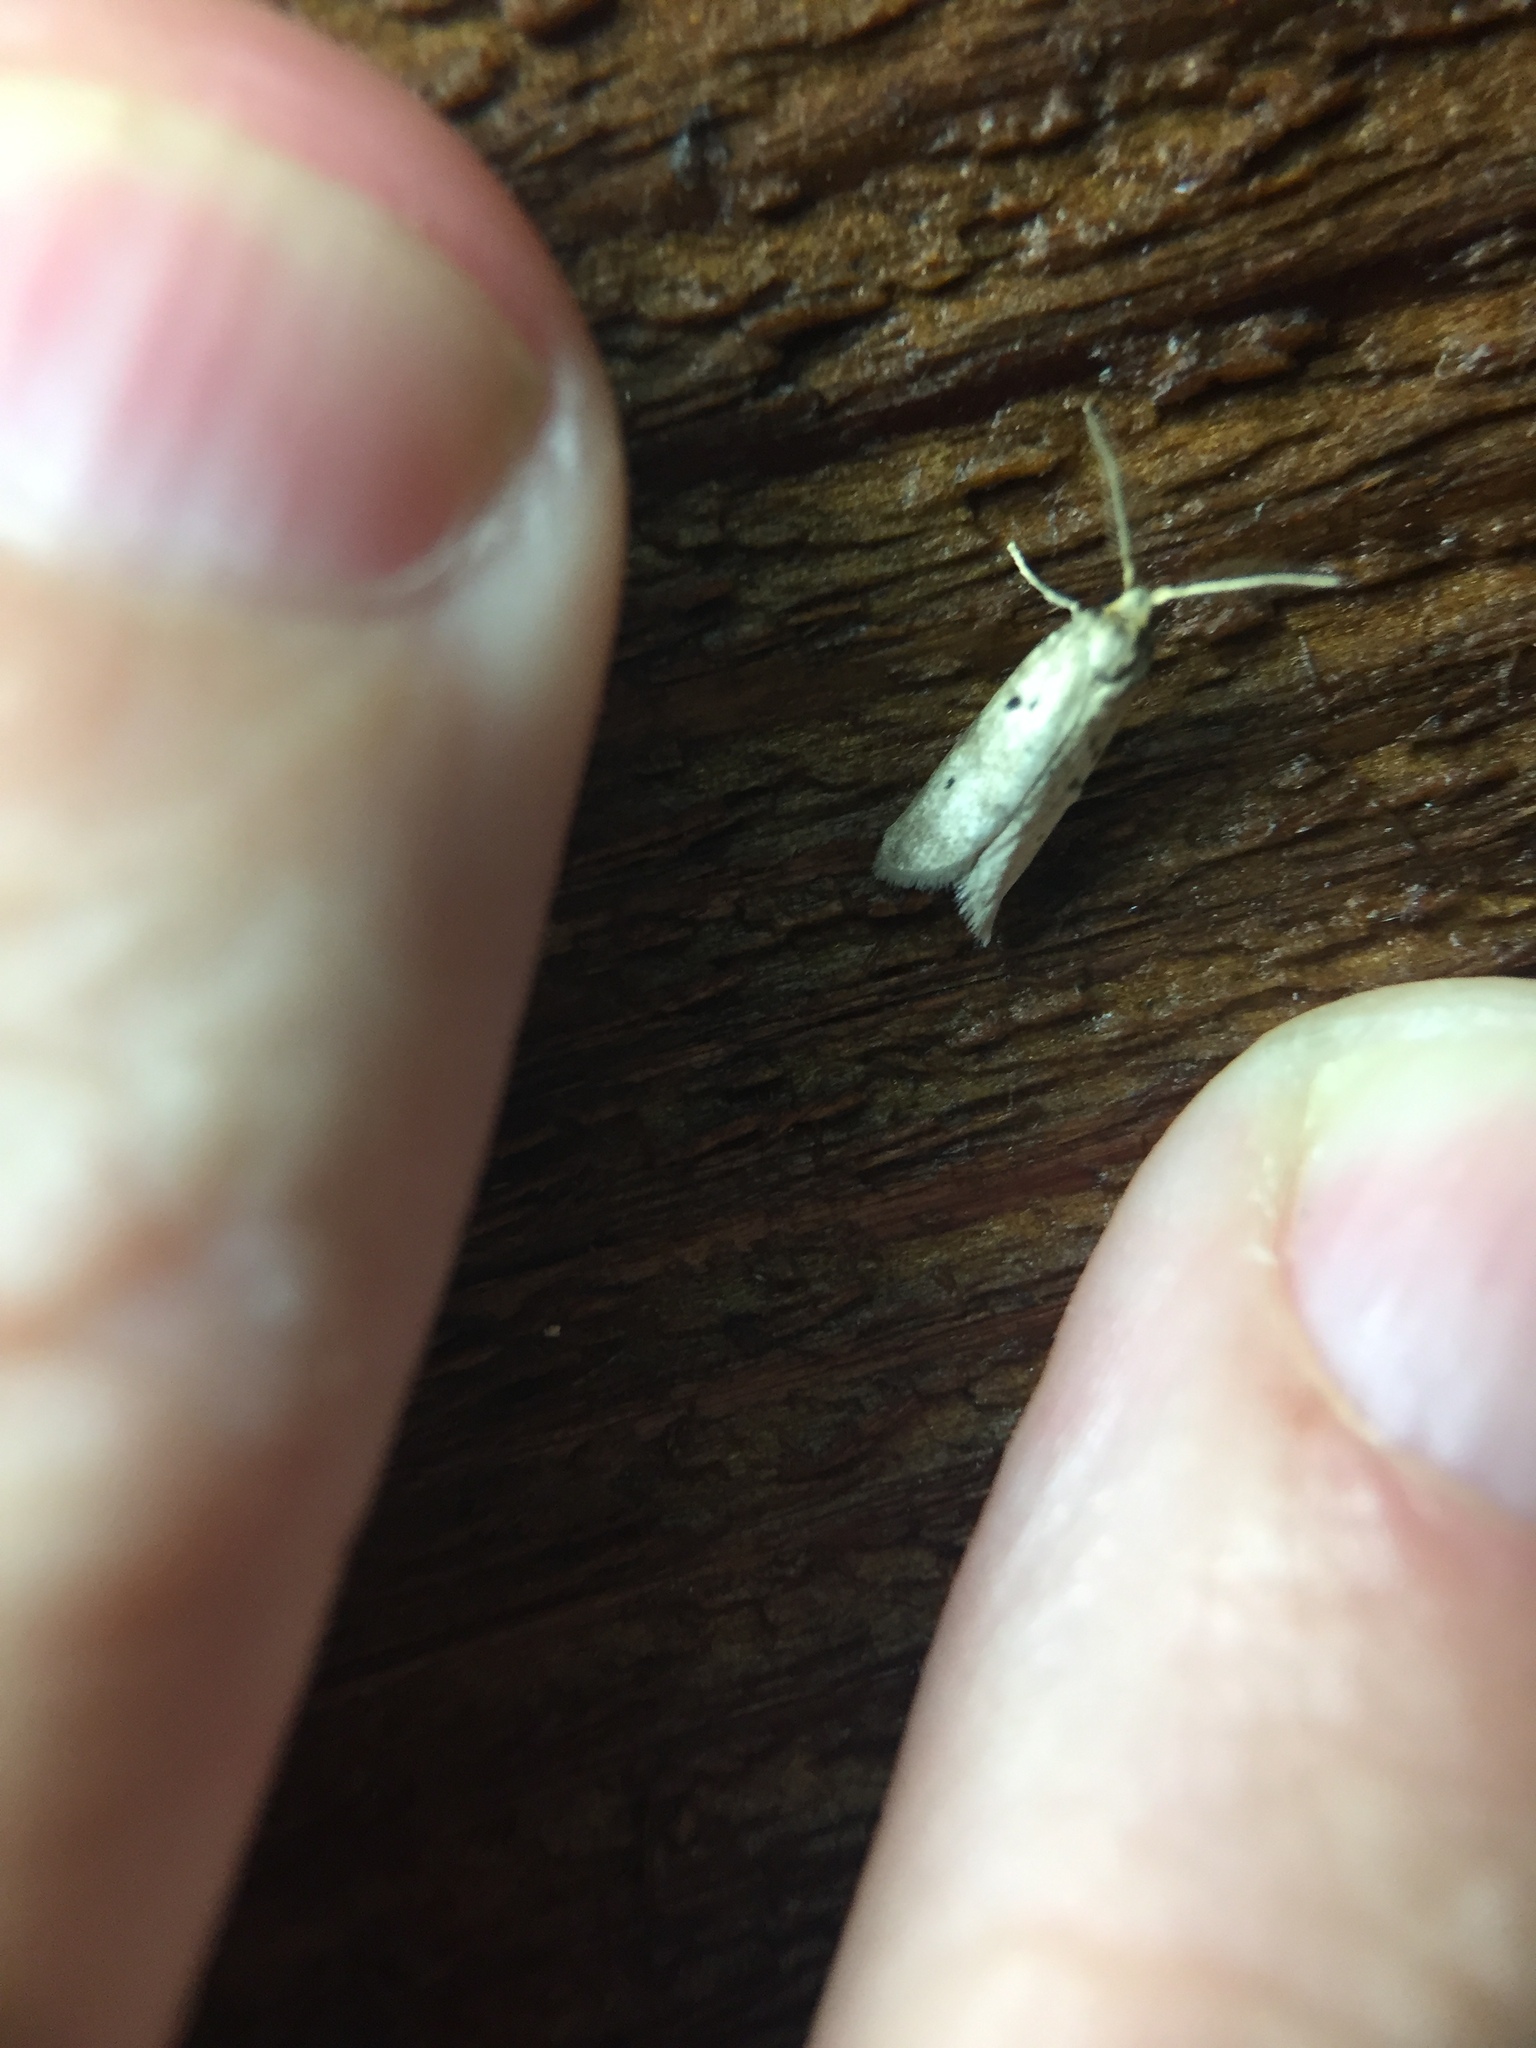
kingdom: Animalia
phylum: Arthropoda
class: Insecta
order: Lepidoptera
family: Galacticidae
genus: Tanaoctena
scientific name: Tanaoctena dubia
